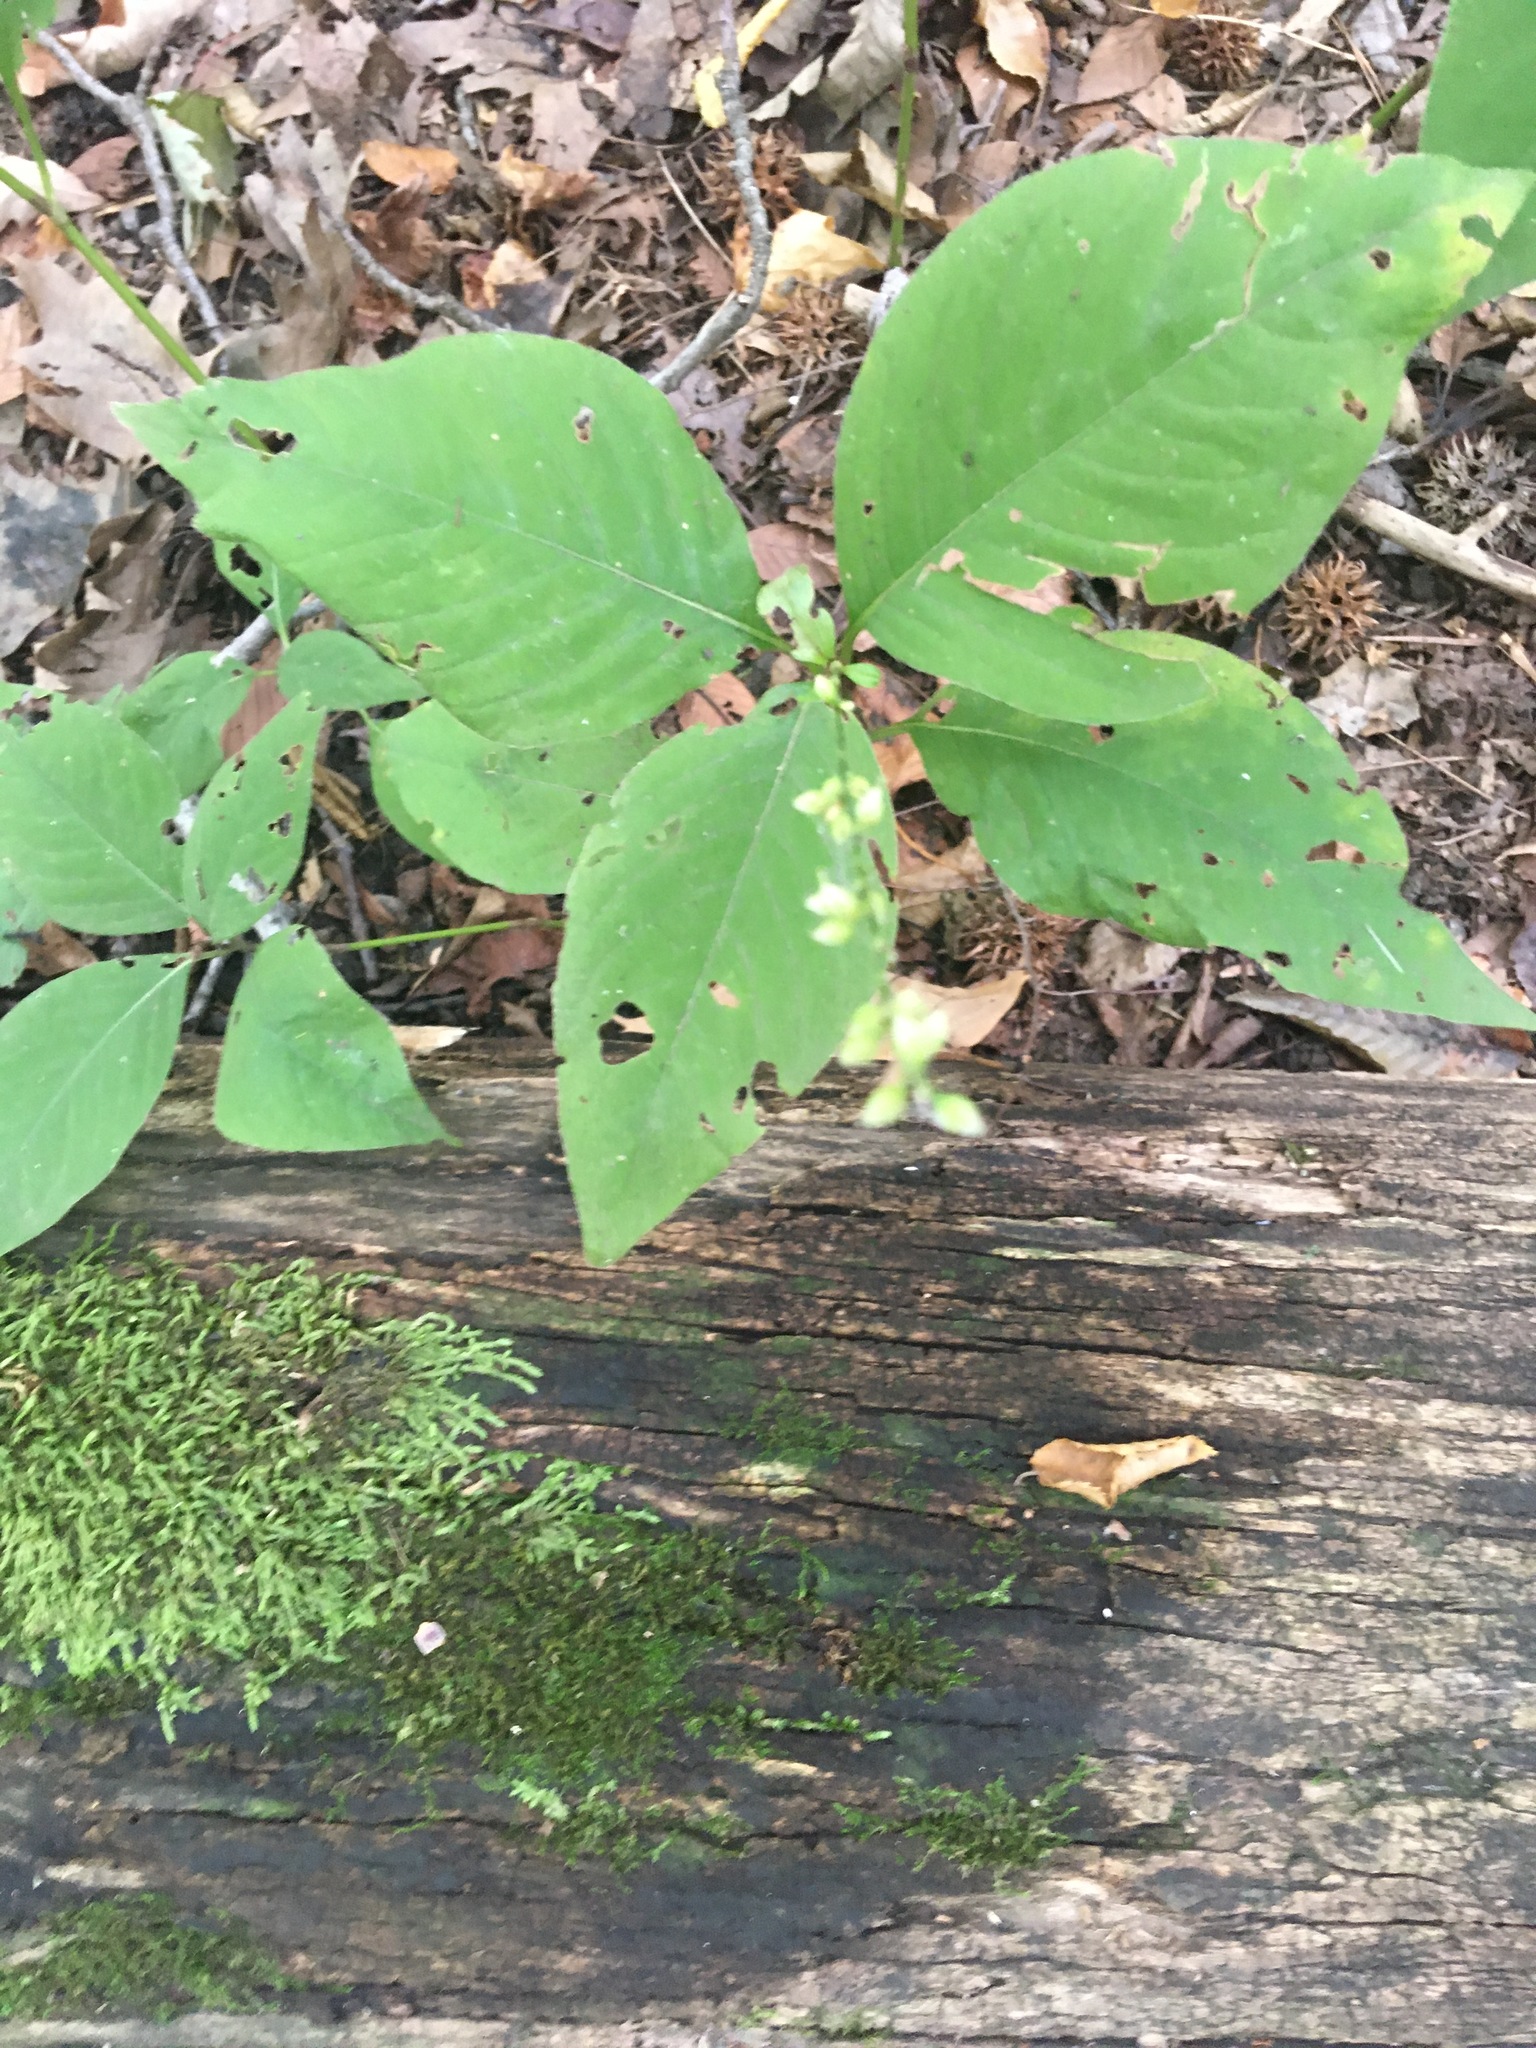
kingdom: Plantae
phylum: Tracheophyta
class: Magnoliopsida
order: Caryophyllales
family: Polygonaceae
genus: Persicaria
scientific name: Persicaria virginiana
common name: Jumpseed
